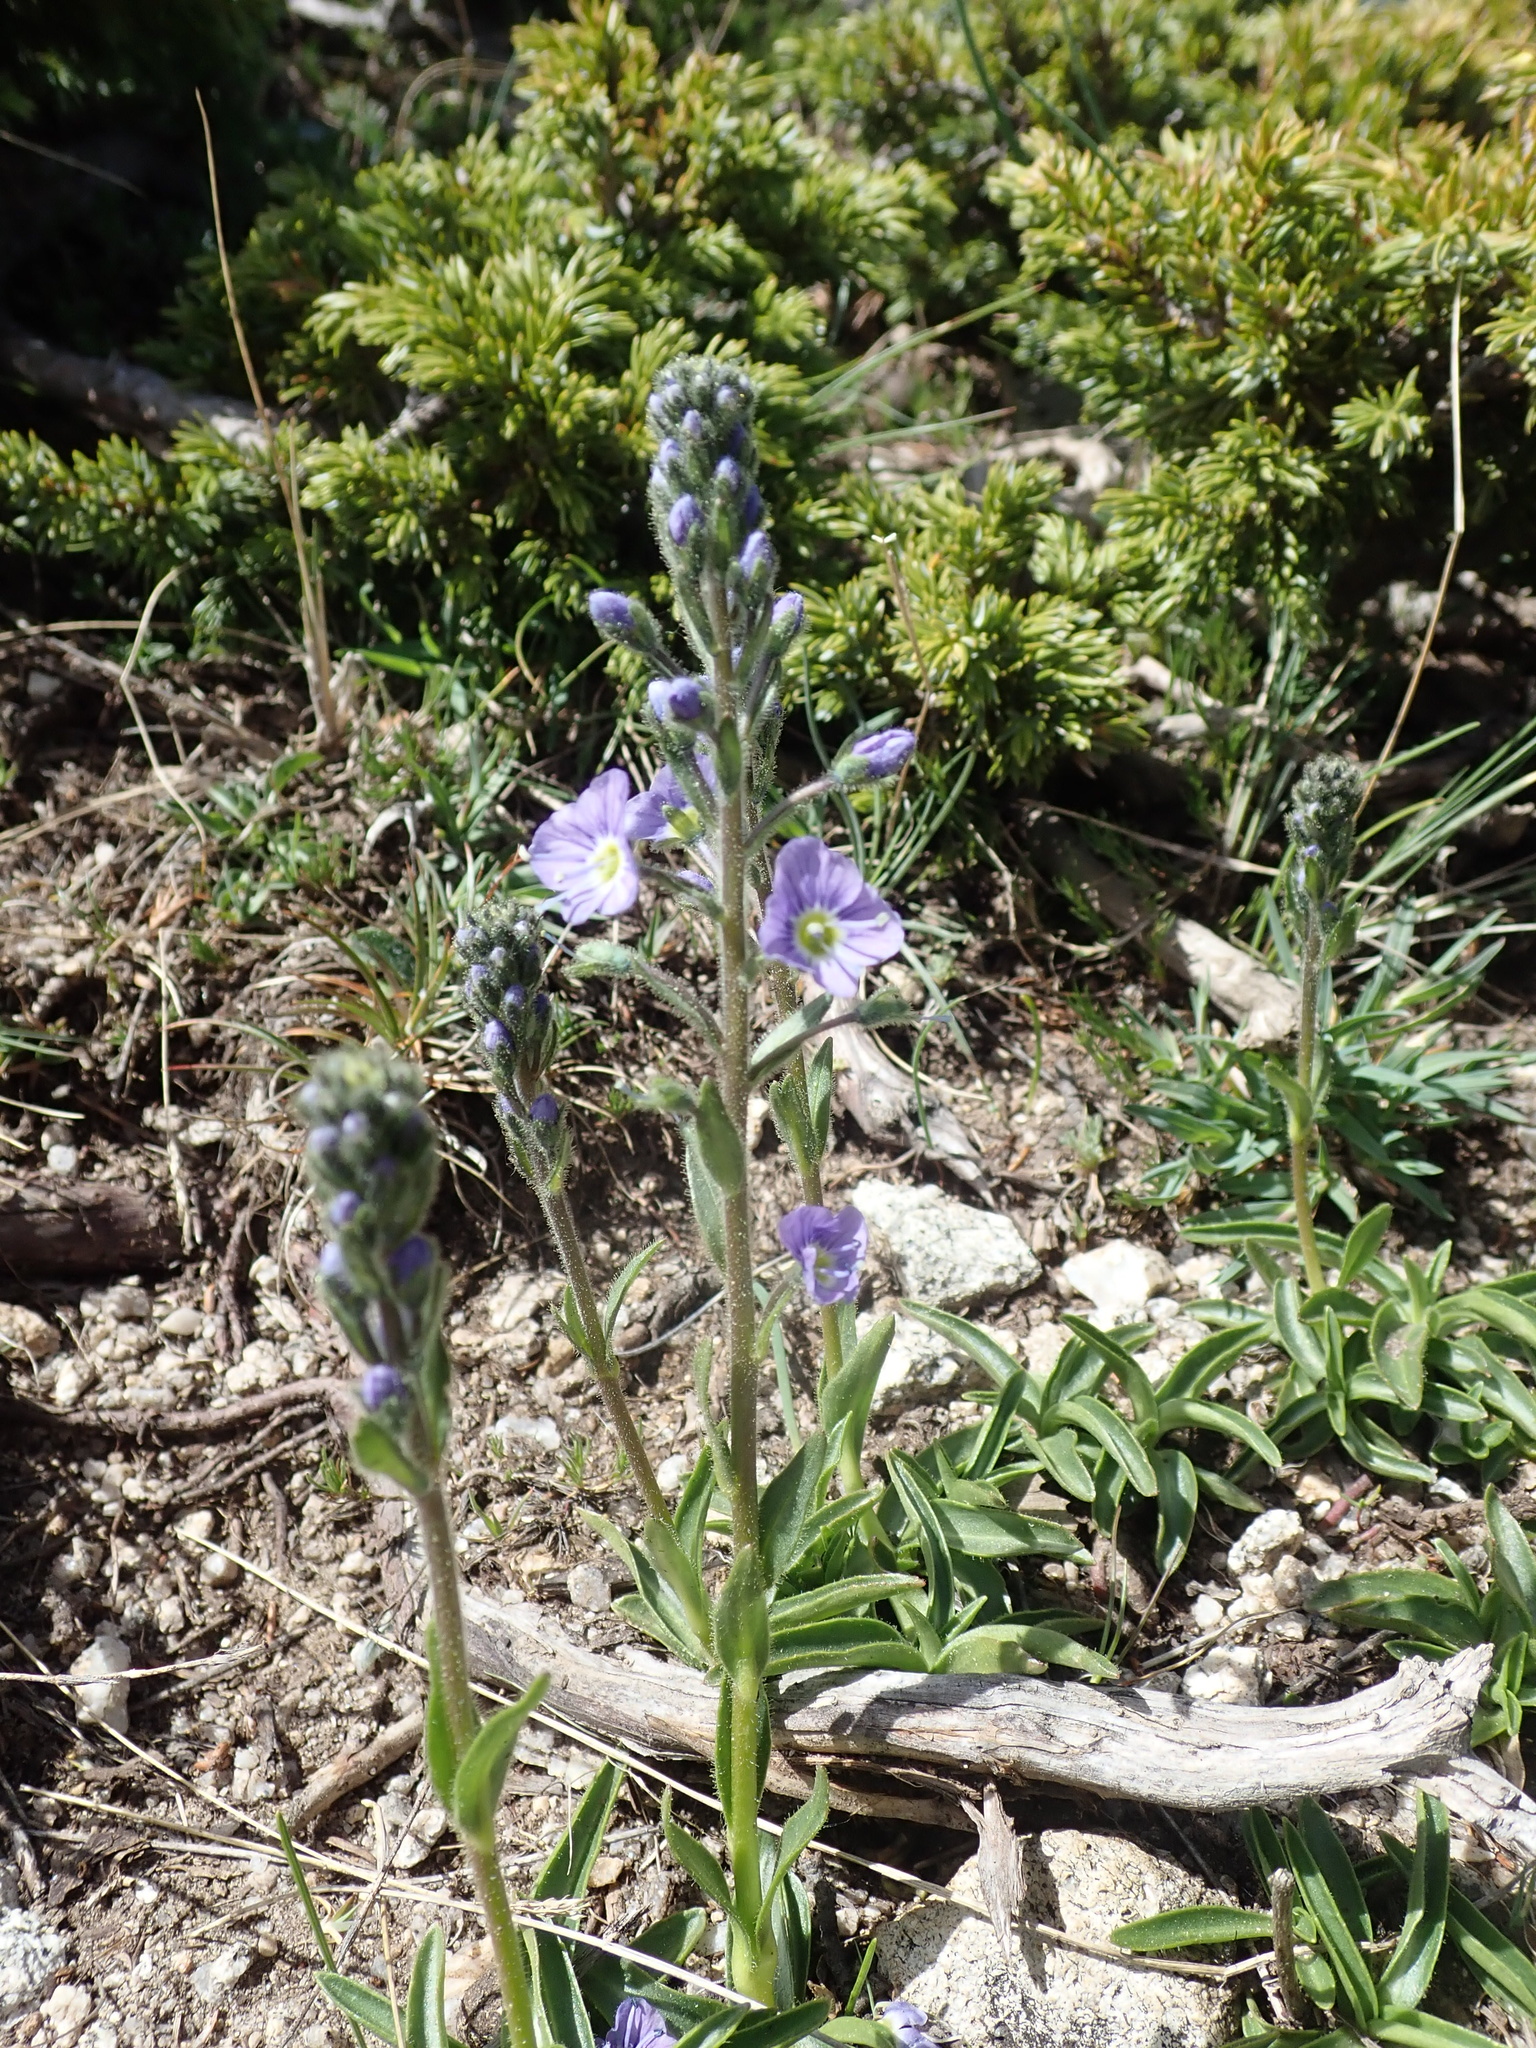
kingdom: Plantae
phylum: Tracheophyta
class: Magnoliopsida
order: Lamiales
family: Plantaginaceae
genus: Veronica
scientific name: Veronica gentianoides
